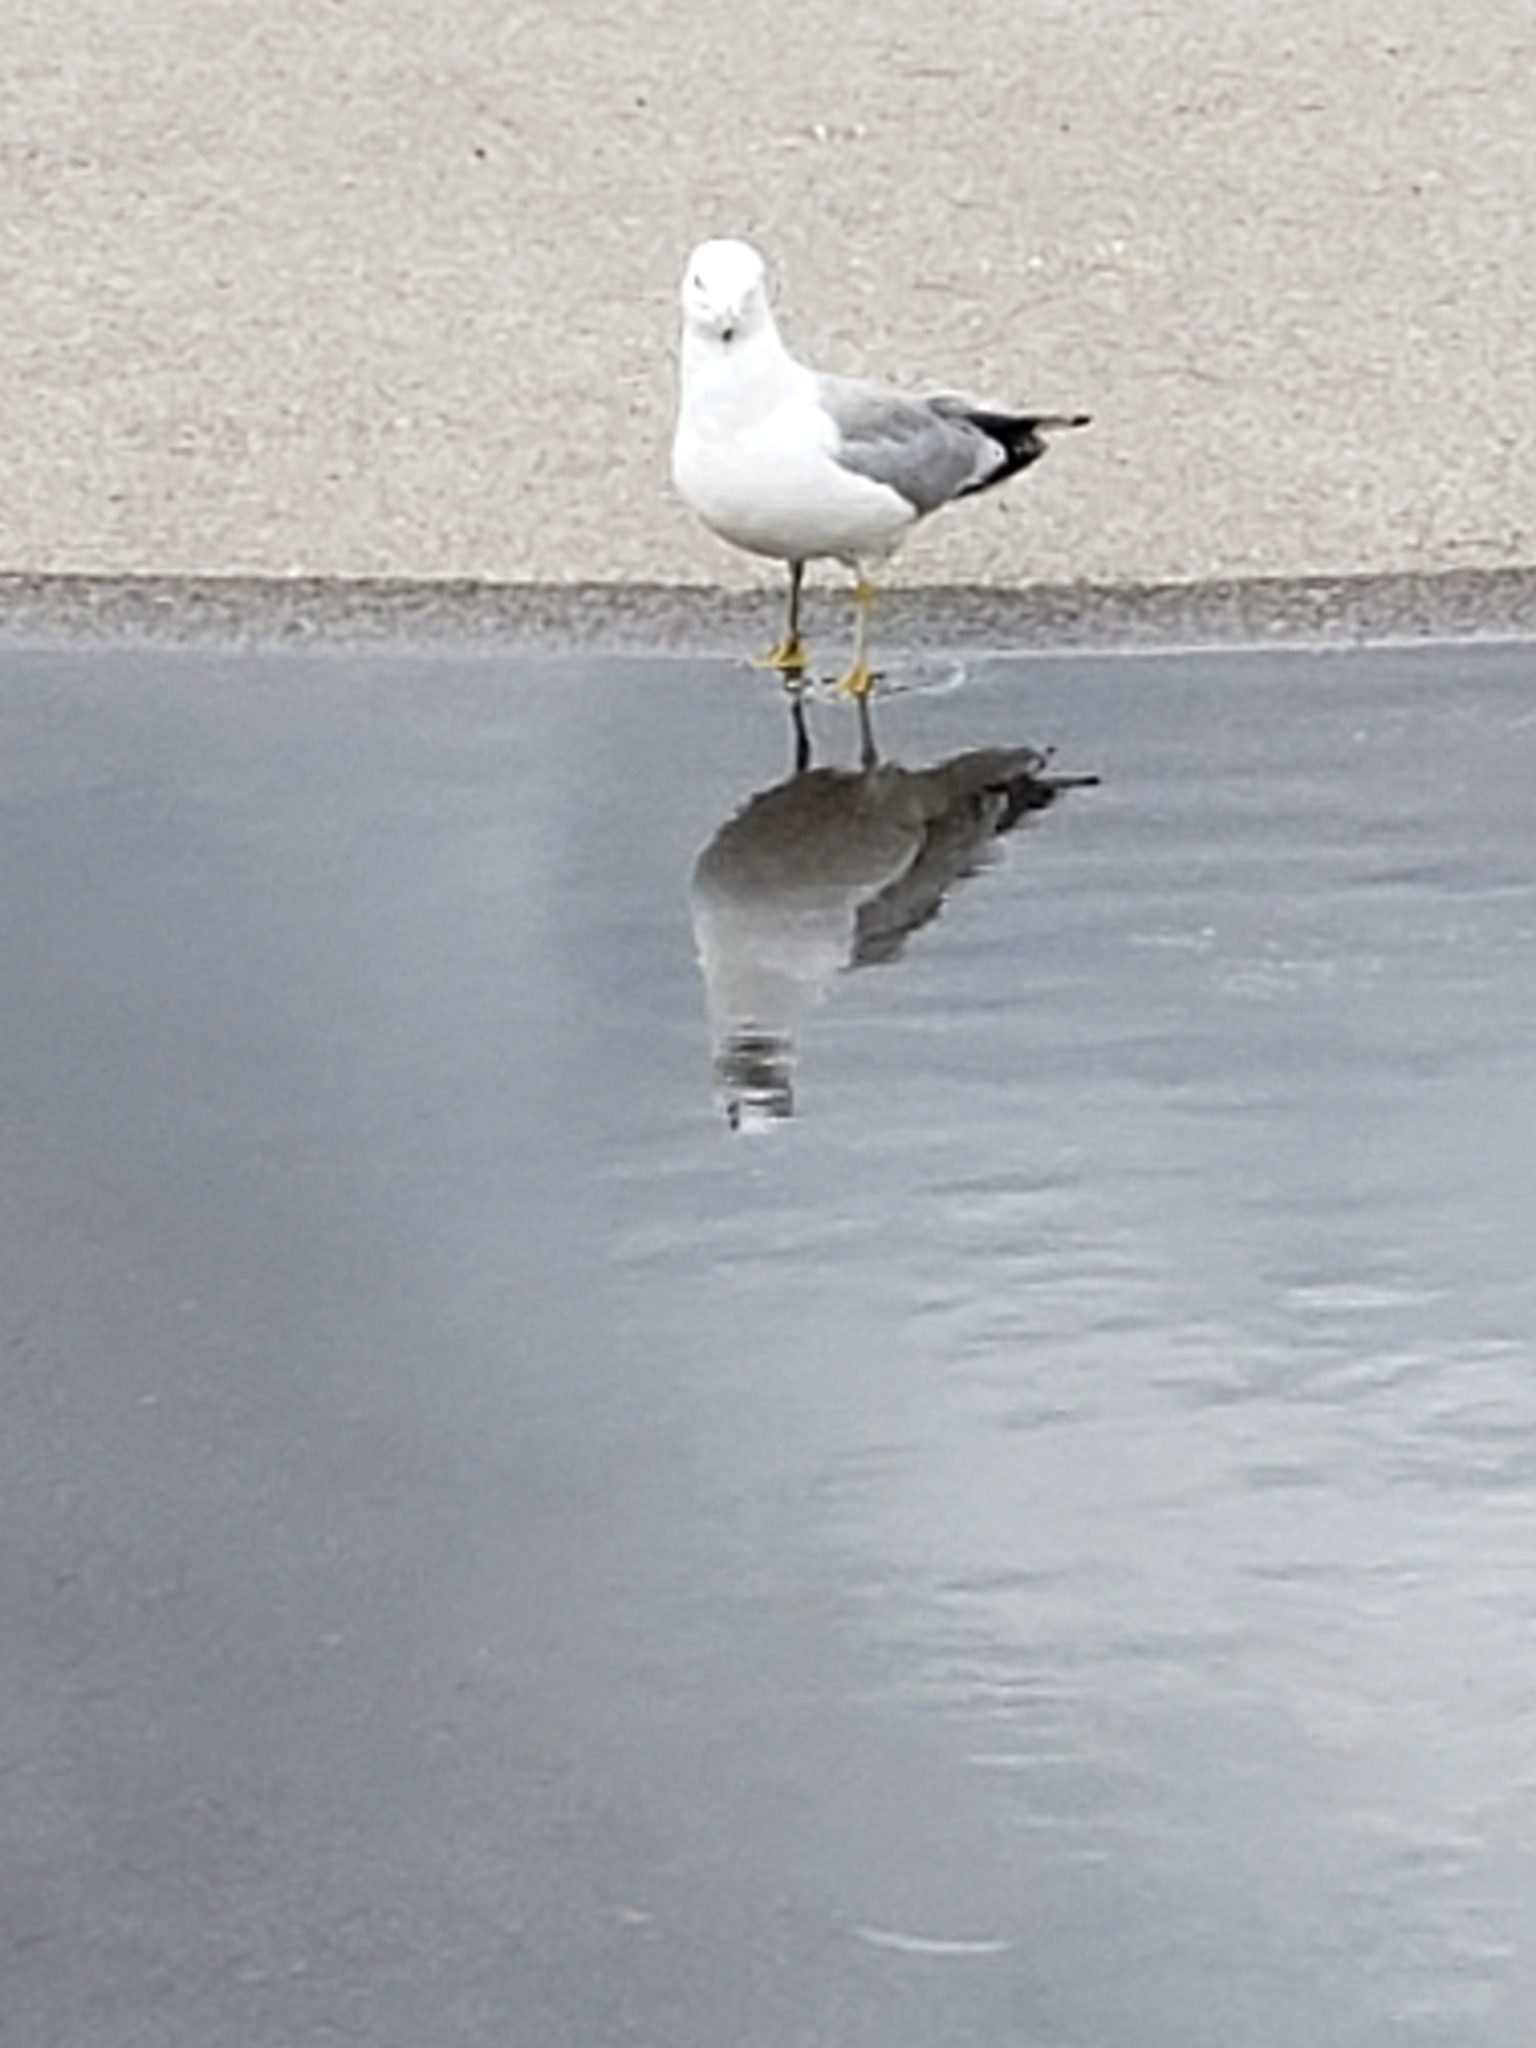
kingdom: Animalia
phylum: Chordata
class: Aves
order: Charadriiformes
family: Laridae
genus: Larus
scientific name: Larus delawarensis
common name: Ring-billed gull
